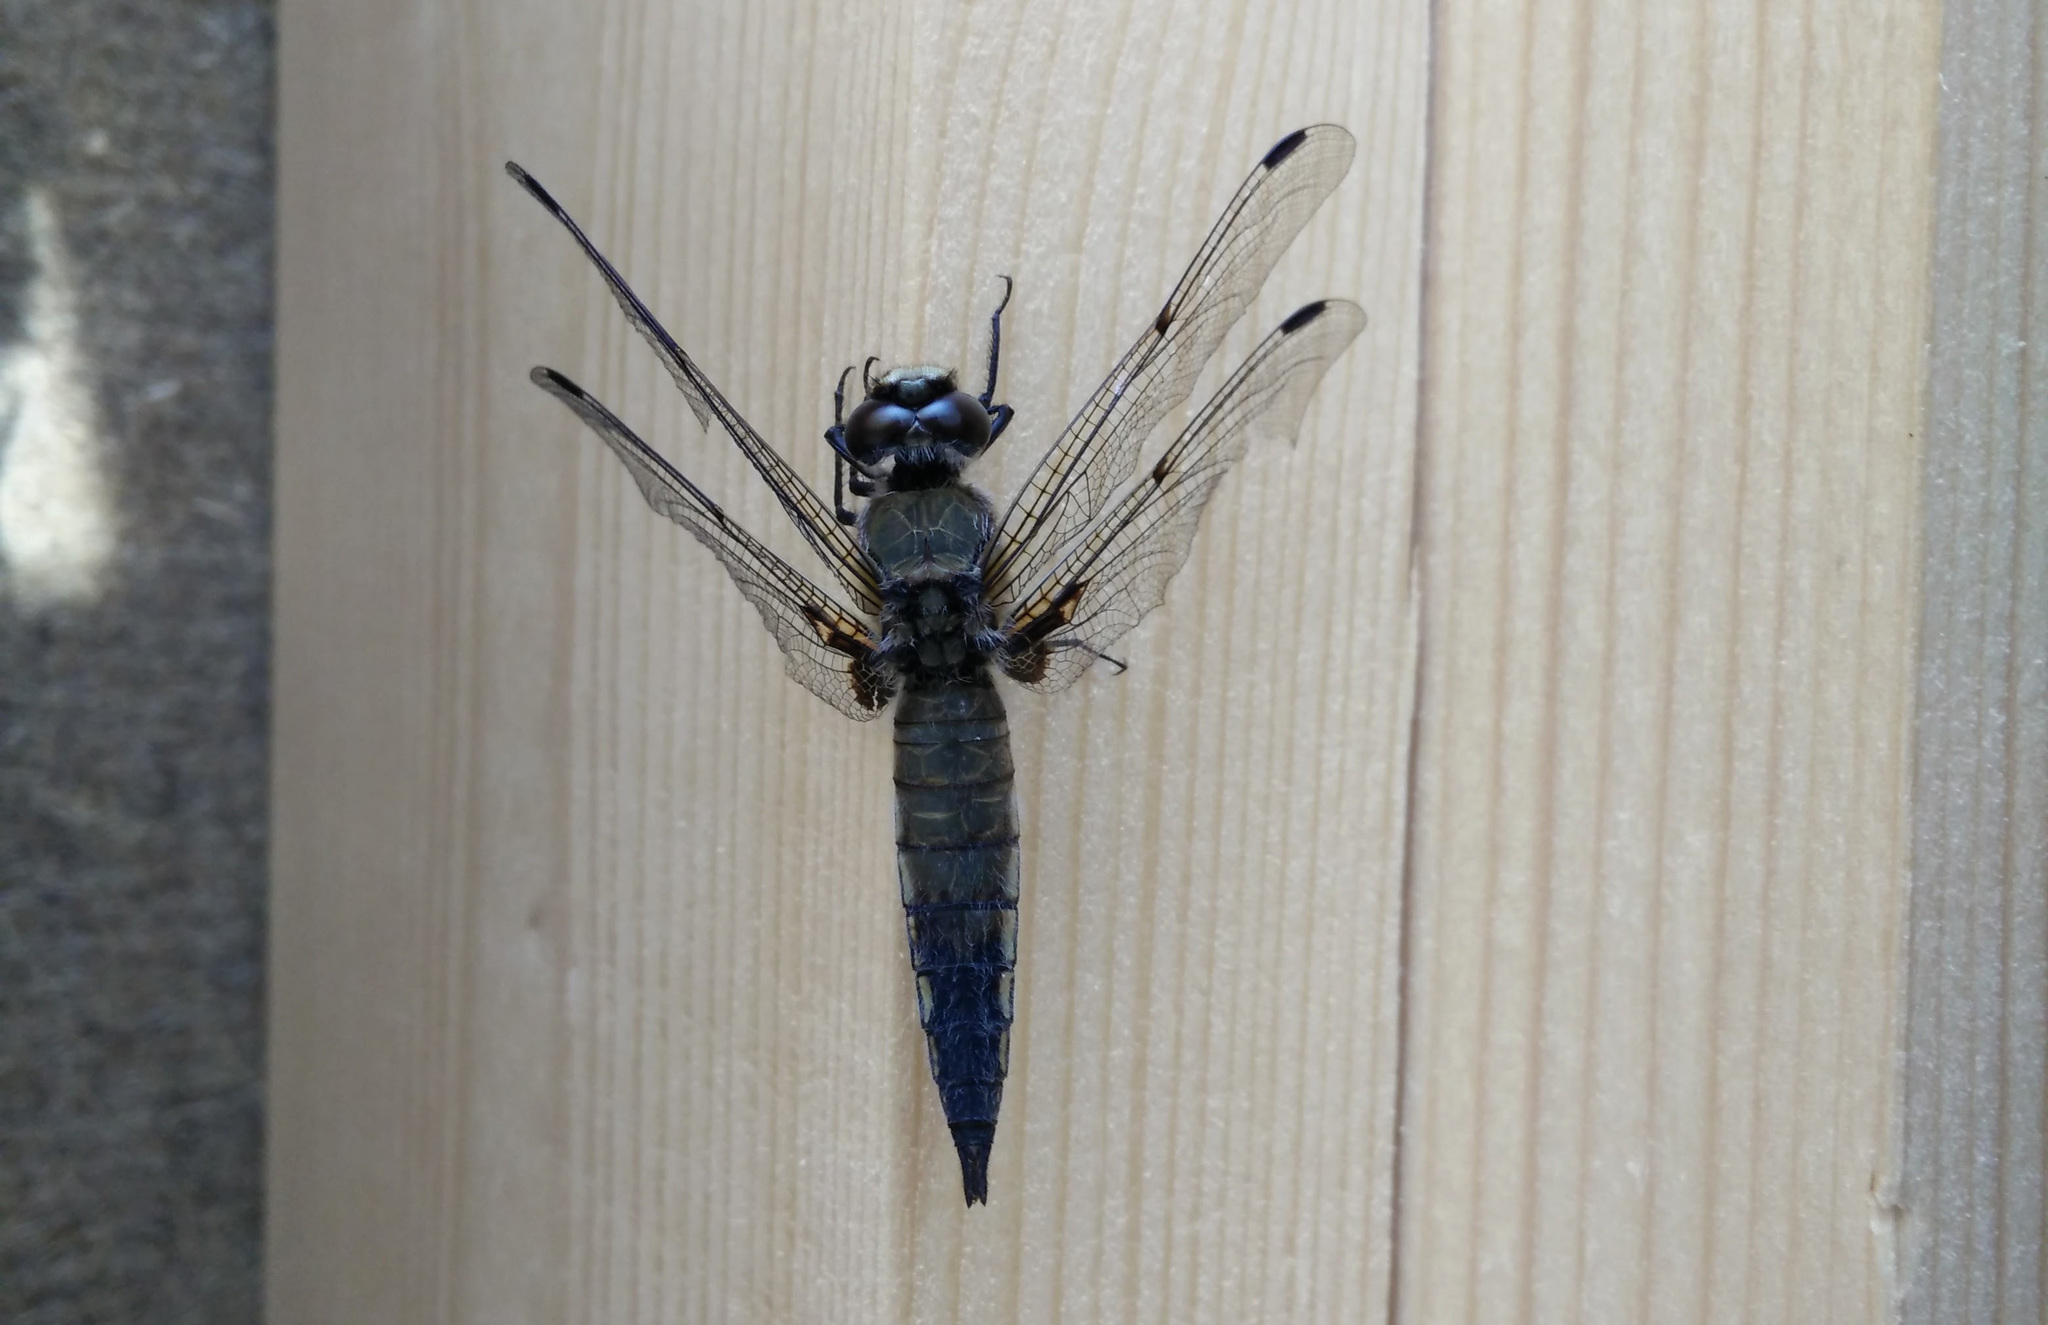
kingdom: Animalia
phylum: Arthropoda
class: Insecta
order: Odonata
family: Libellulidae
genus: Libellula
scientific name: Libellula quadrimaculata
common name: Four-spotted chaser
